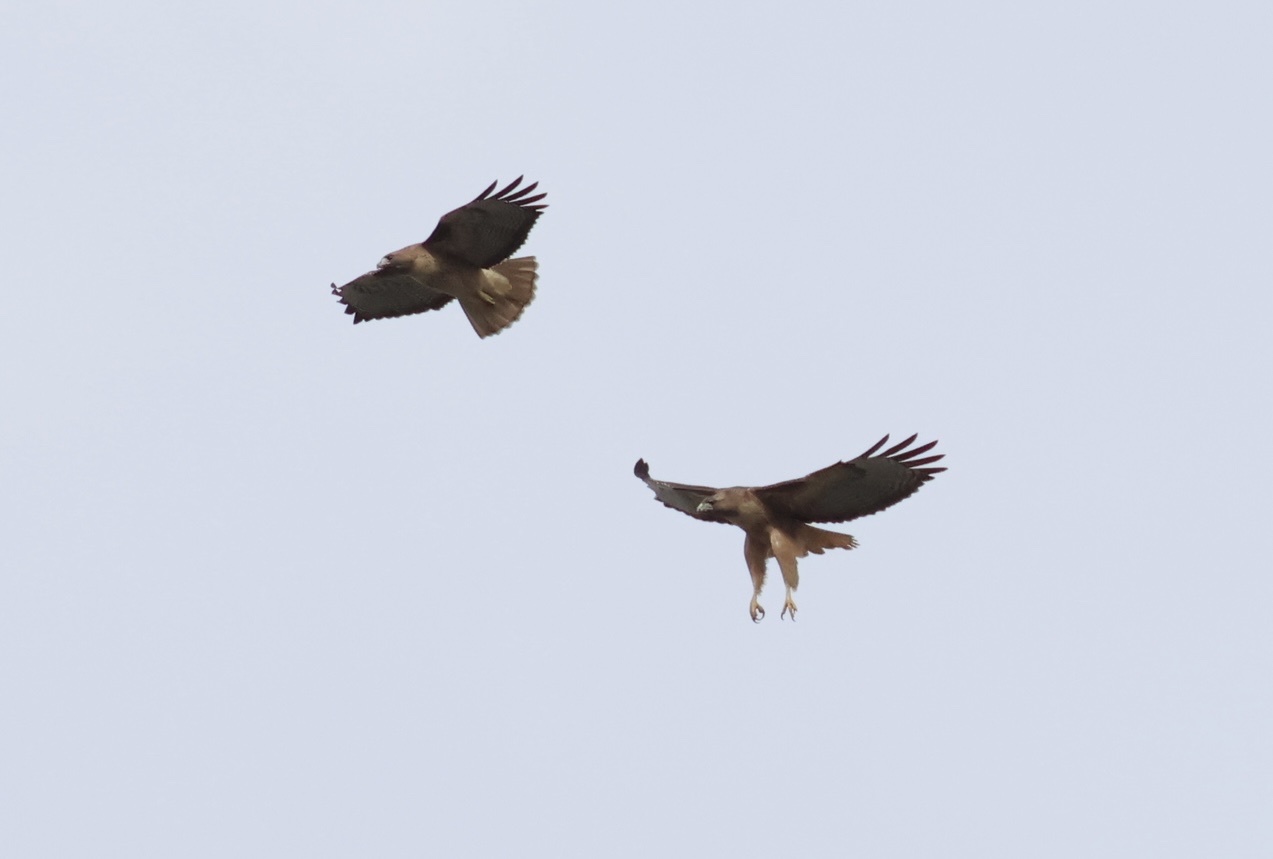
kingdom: Animalia
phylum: Chordata
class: Aves
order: Accipitriformes
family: Accipitridae
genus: Buteo
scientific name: Buteo jamaicensis
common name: Red-tailed hawk
